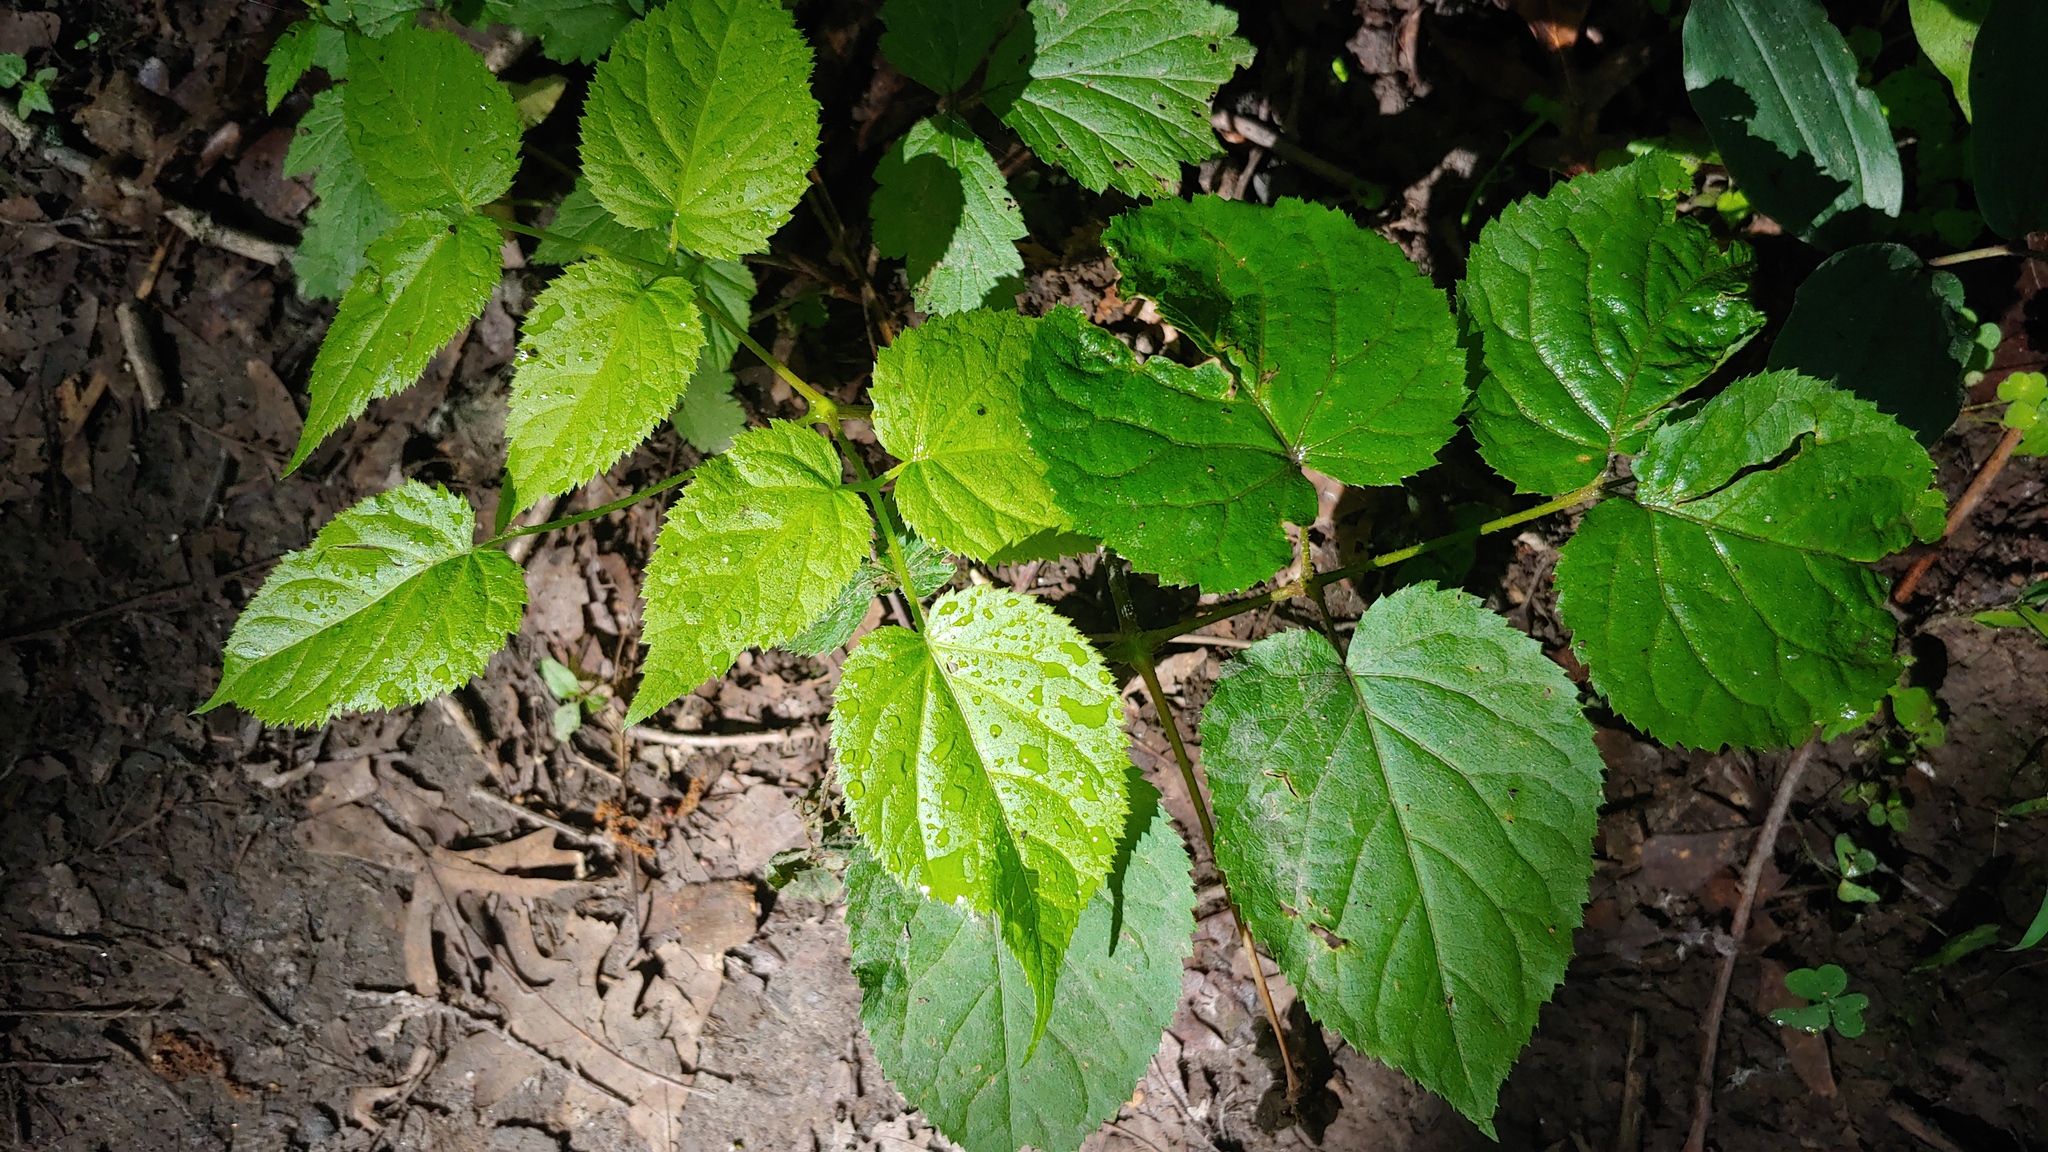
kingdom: Plantae
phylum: Tracheophyta
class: Magnoliopsida
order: Apiales
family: Araliaceae
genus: Aralia
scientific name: Aralia racemosa
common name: American-spikenard
